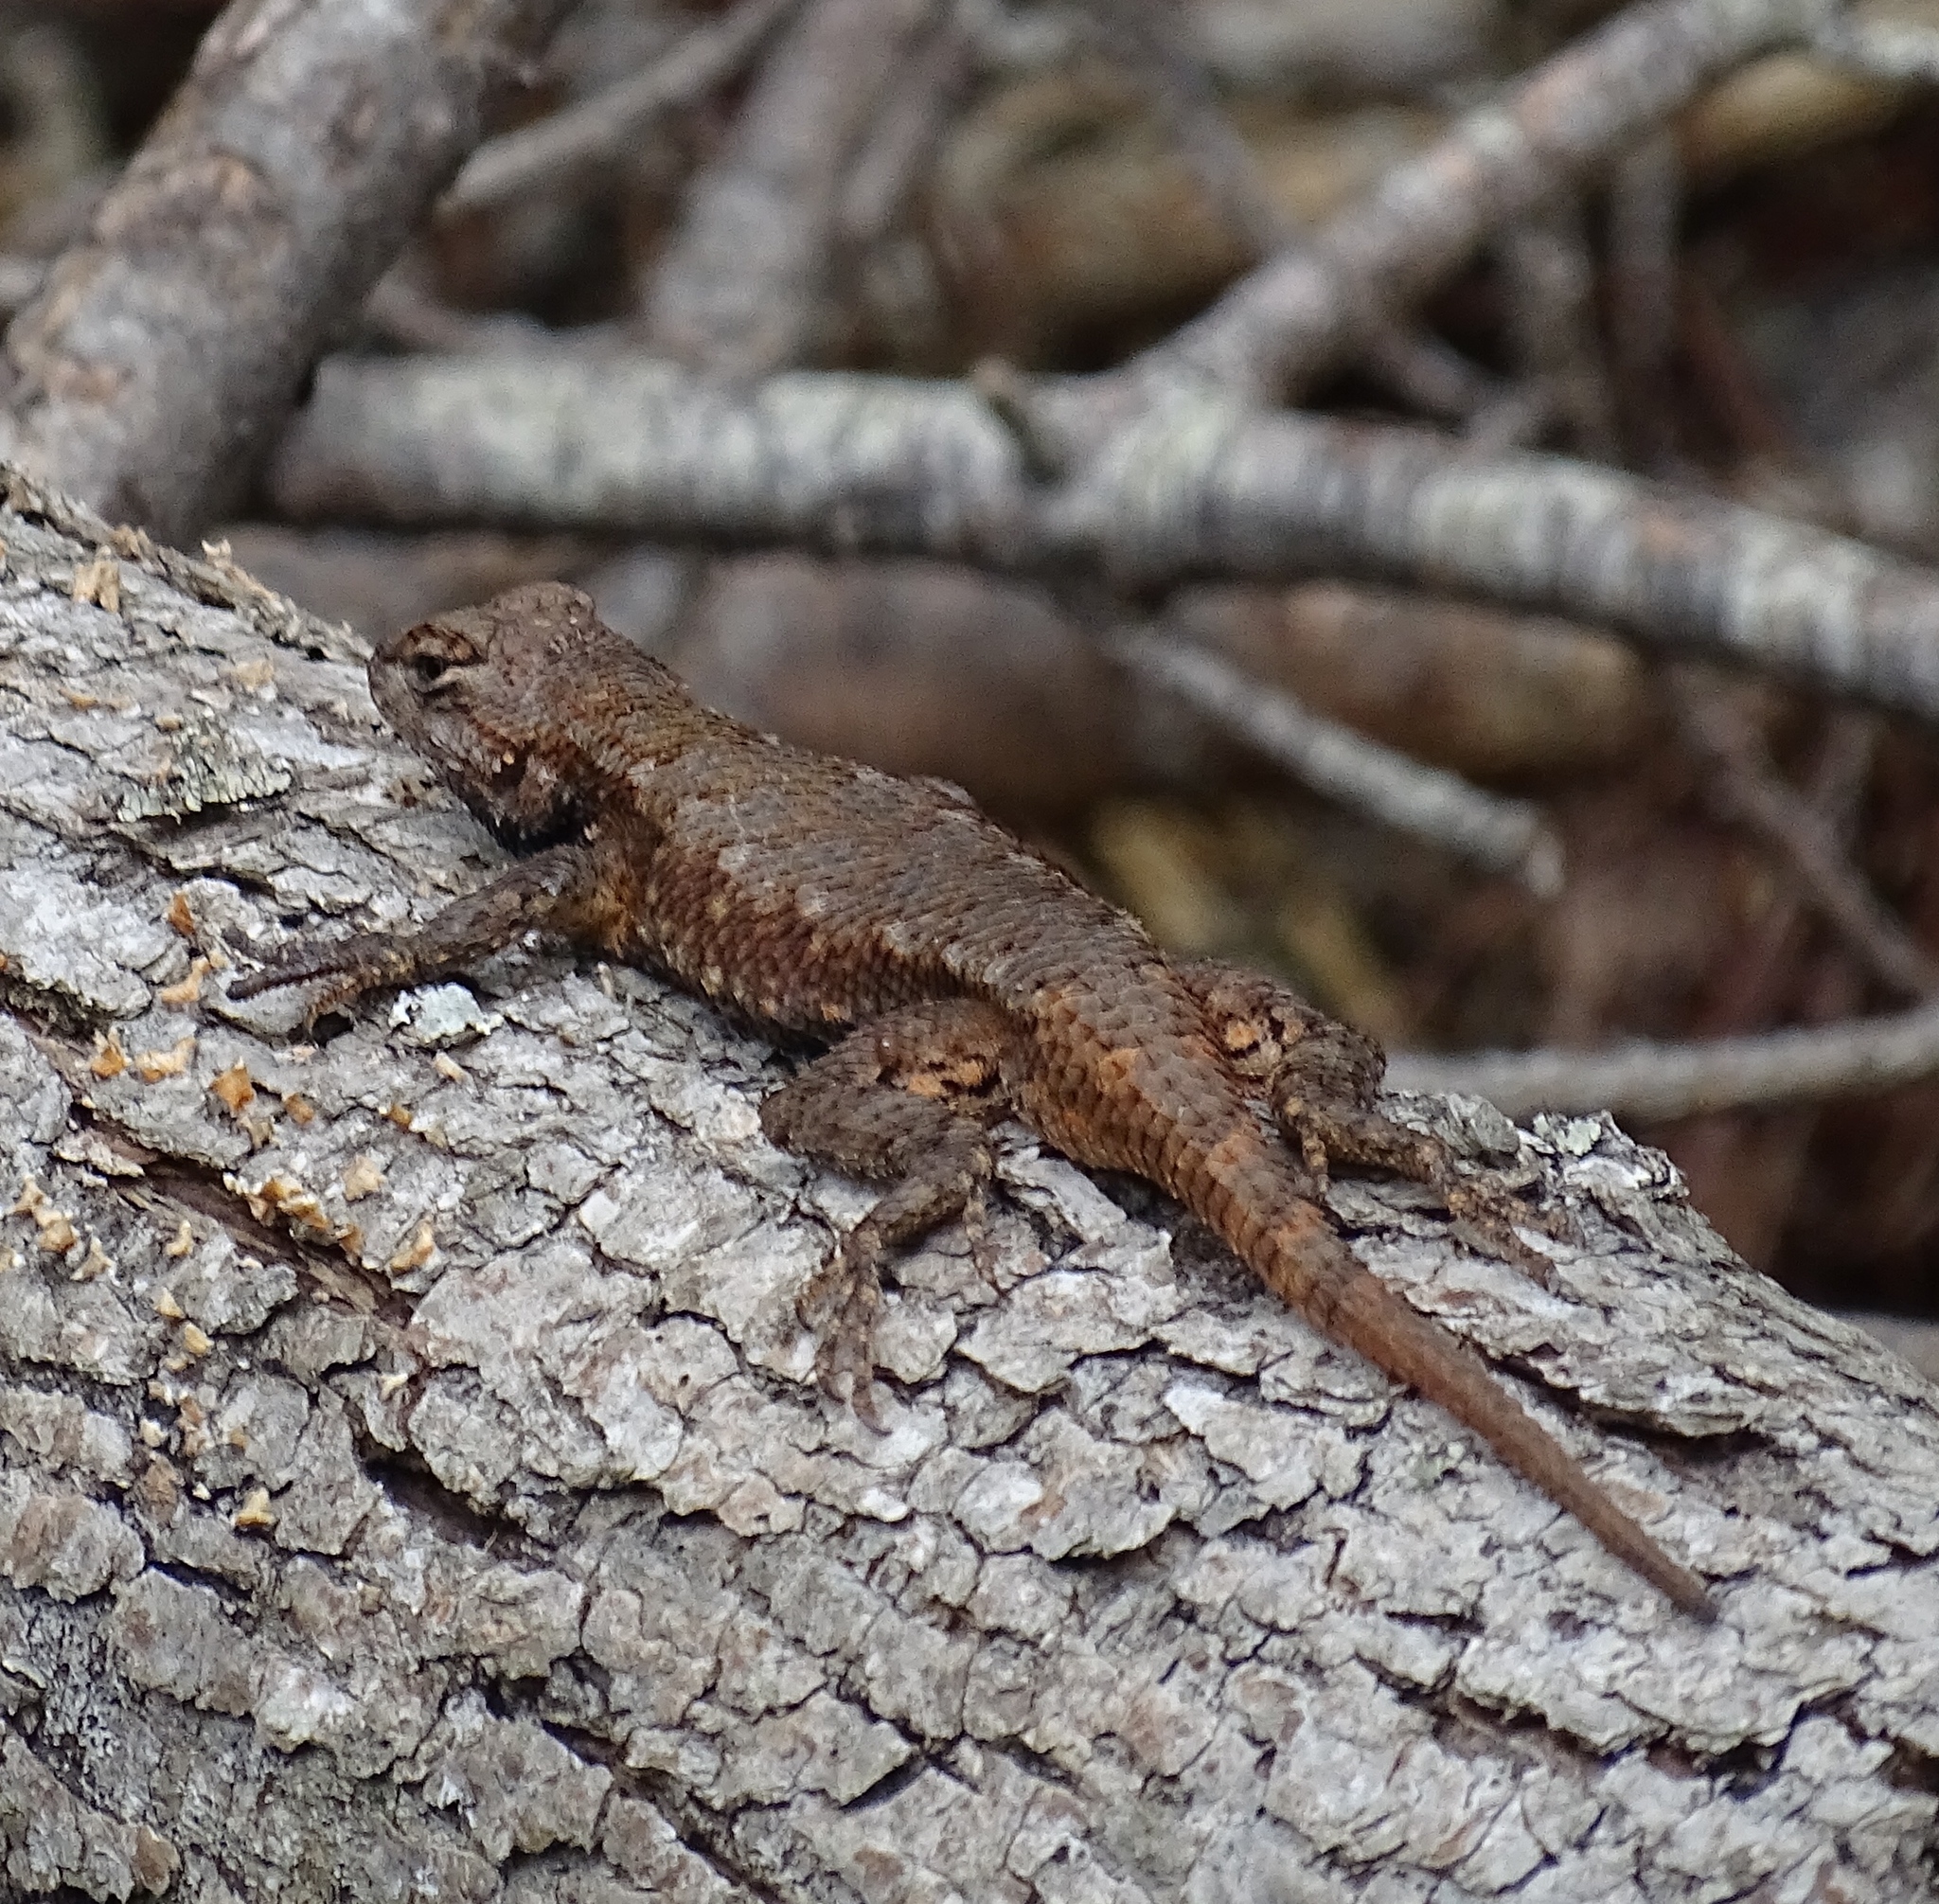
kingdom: Animalia
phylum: Chordata
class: Squamata
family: Phrynosomatidae
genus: Sceloporus
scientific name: Sceloporus undulatus
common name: Eastern fence lizard
